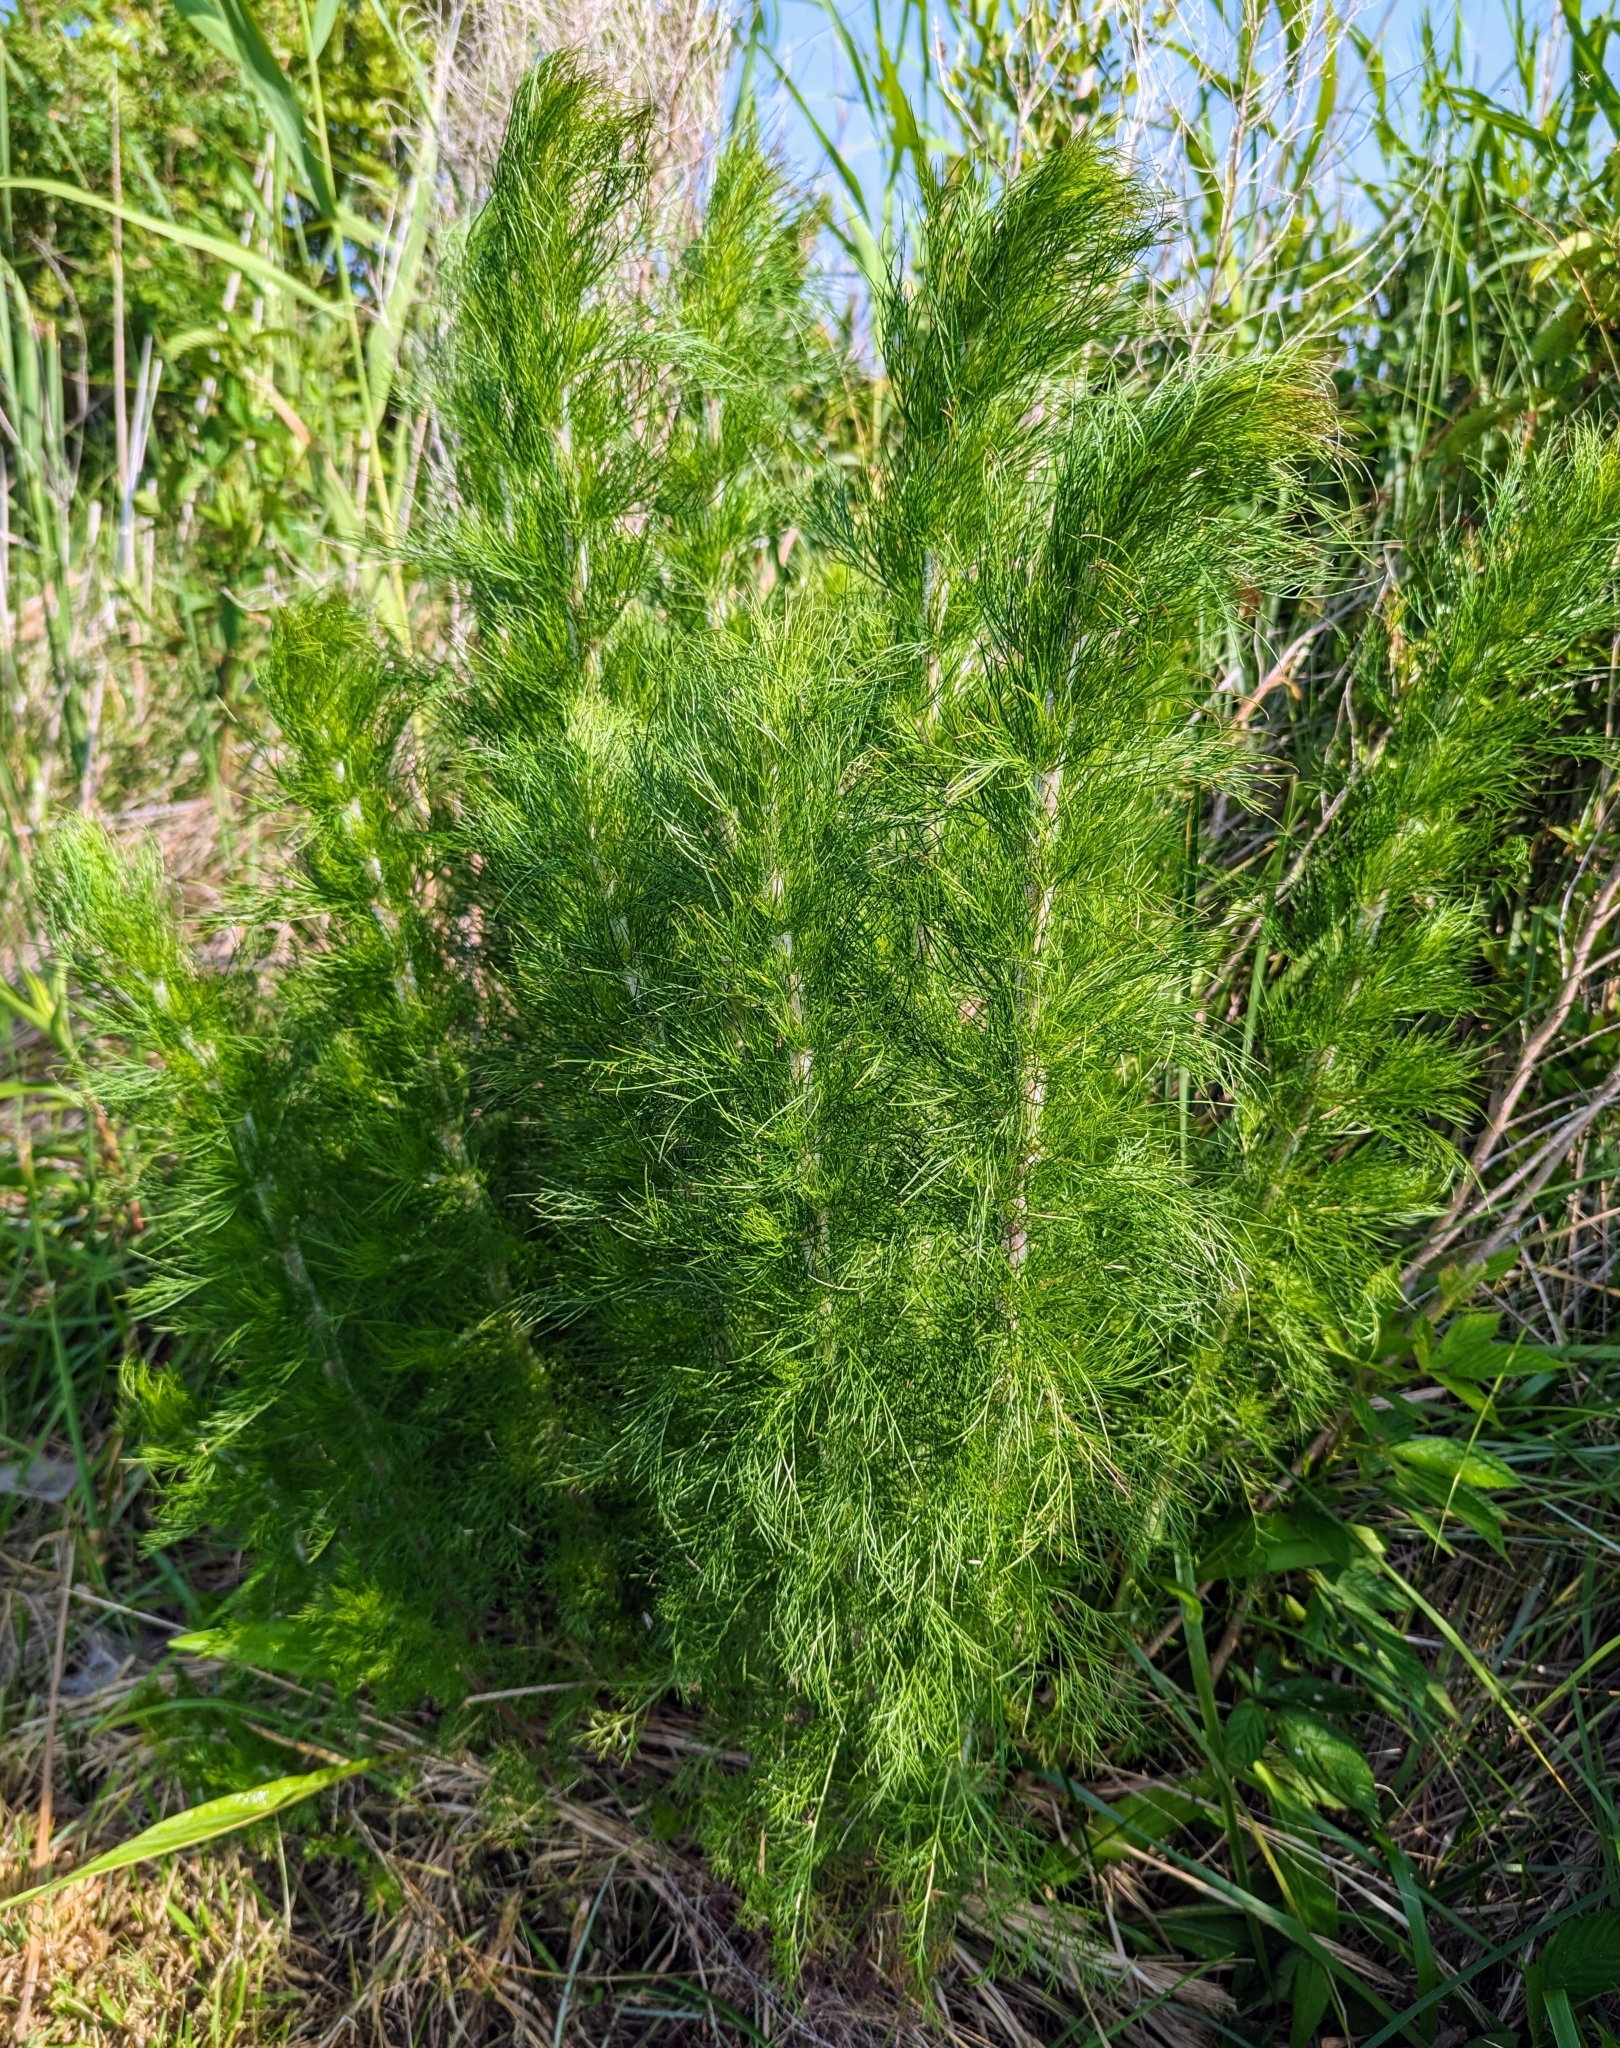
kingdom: Plantae
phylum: Tracheophyta
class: Magnoliopsida
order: Asterales
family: Asteraceae
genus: Eupatorium
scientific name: Eupatorium capillifolium
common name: Dog-fennel
